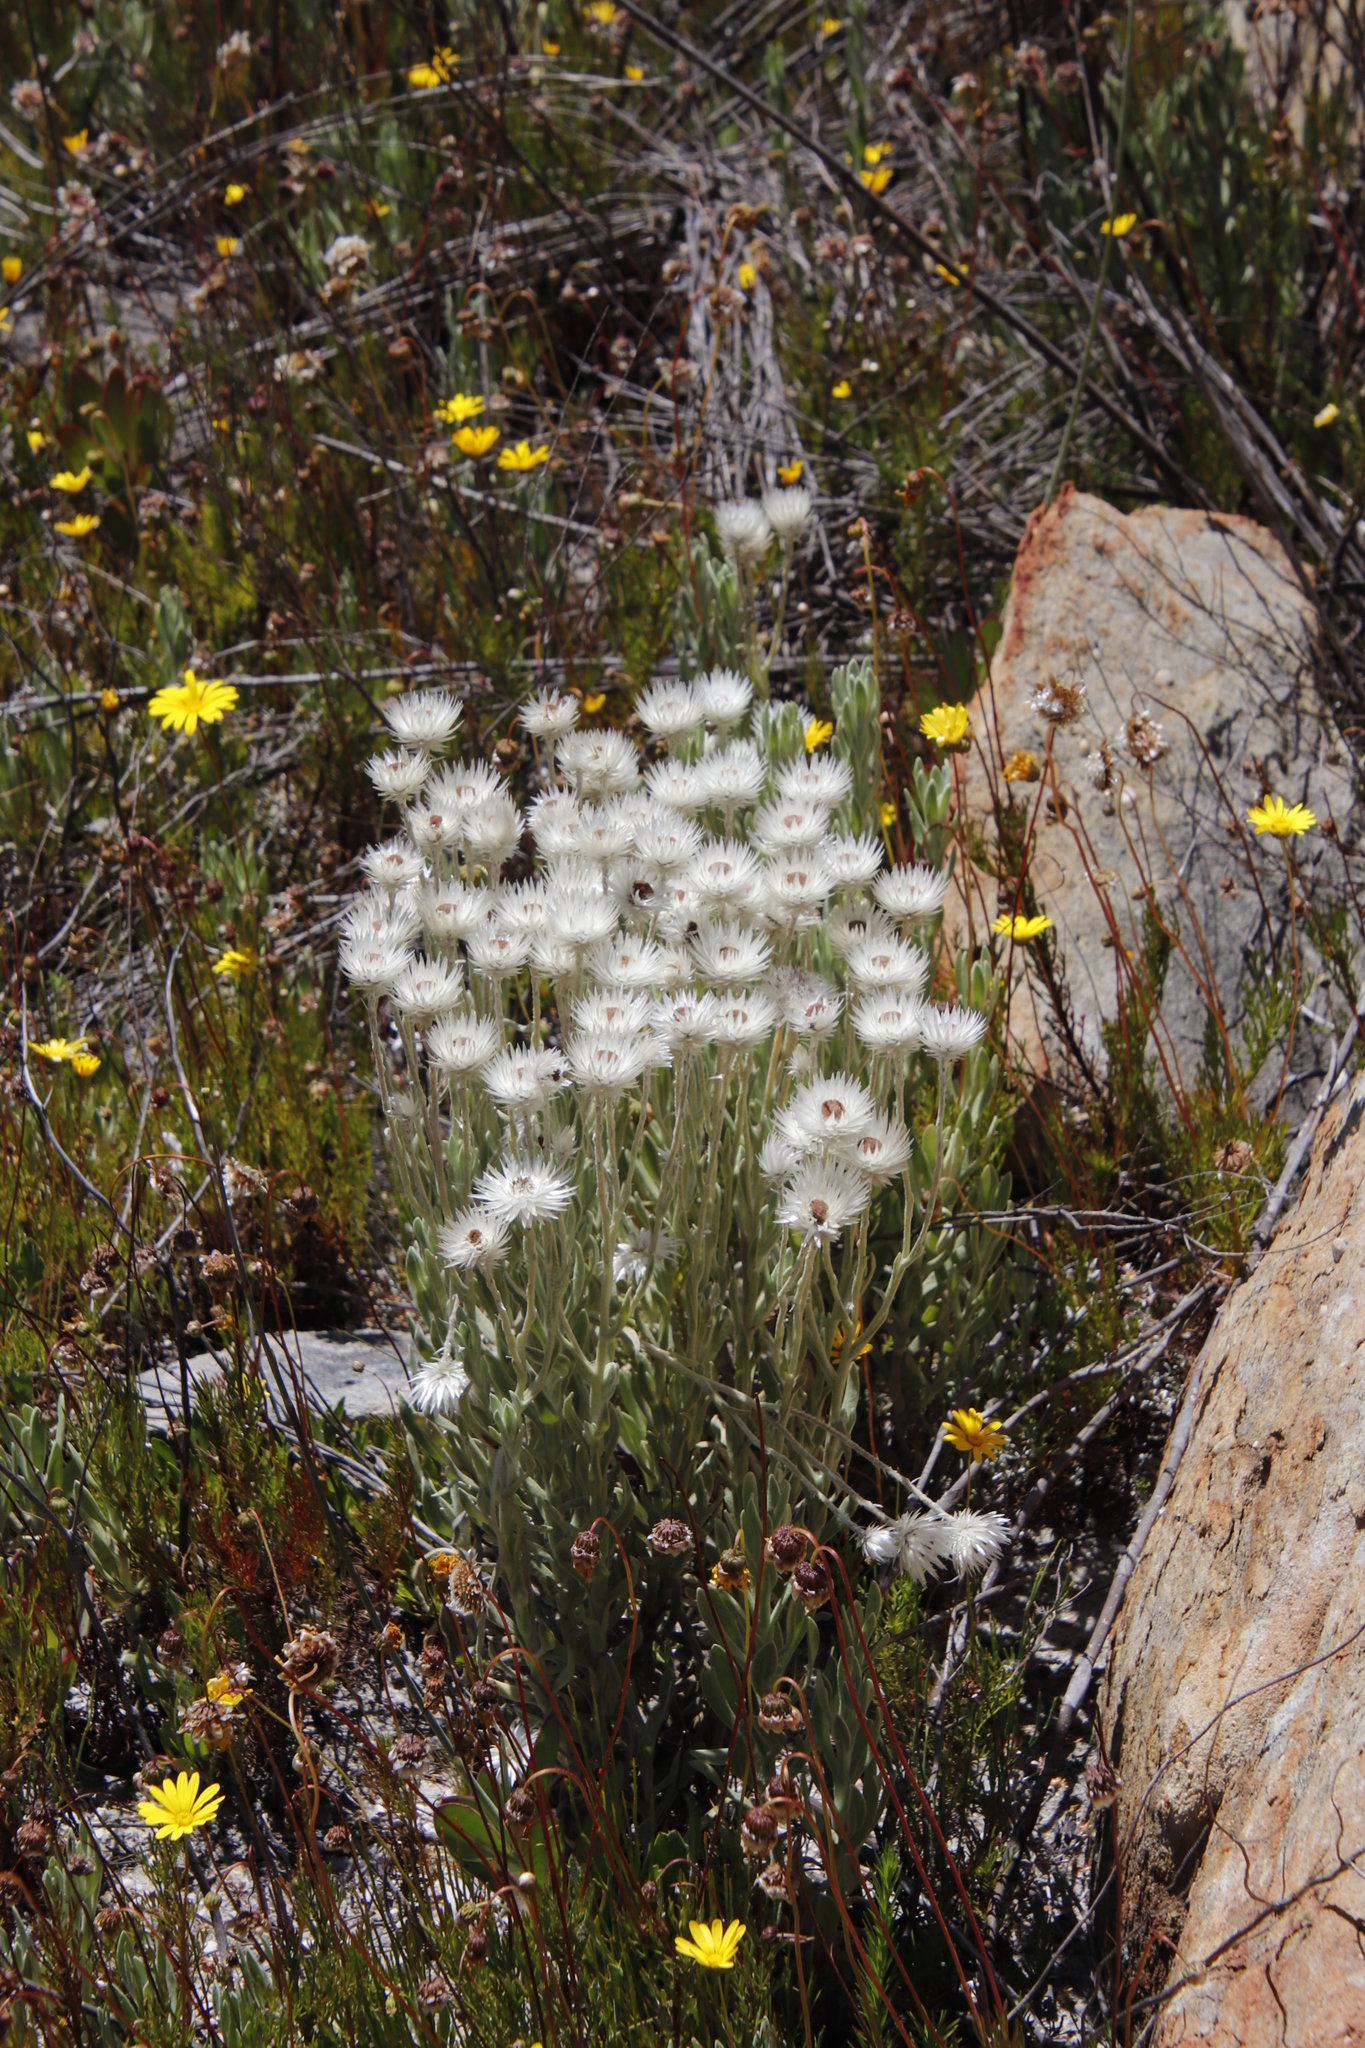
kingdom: Plantae
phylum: Tracheophyta
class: Magnoliopsida
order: Asterales
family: Asteraceae
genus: Syncarpha
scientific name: Syncarpha vestita
